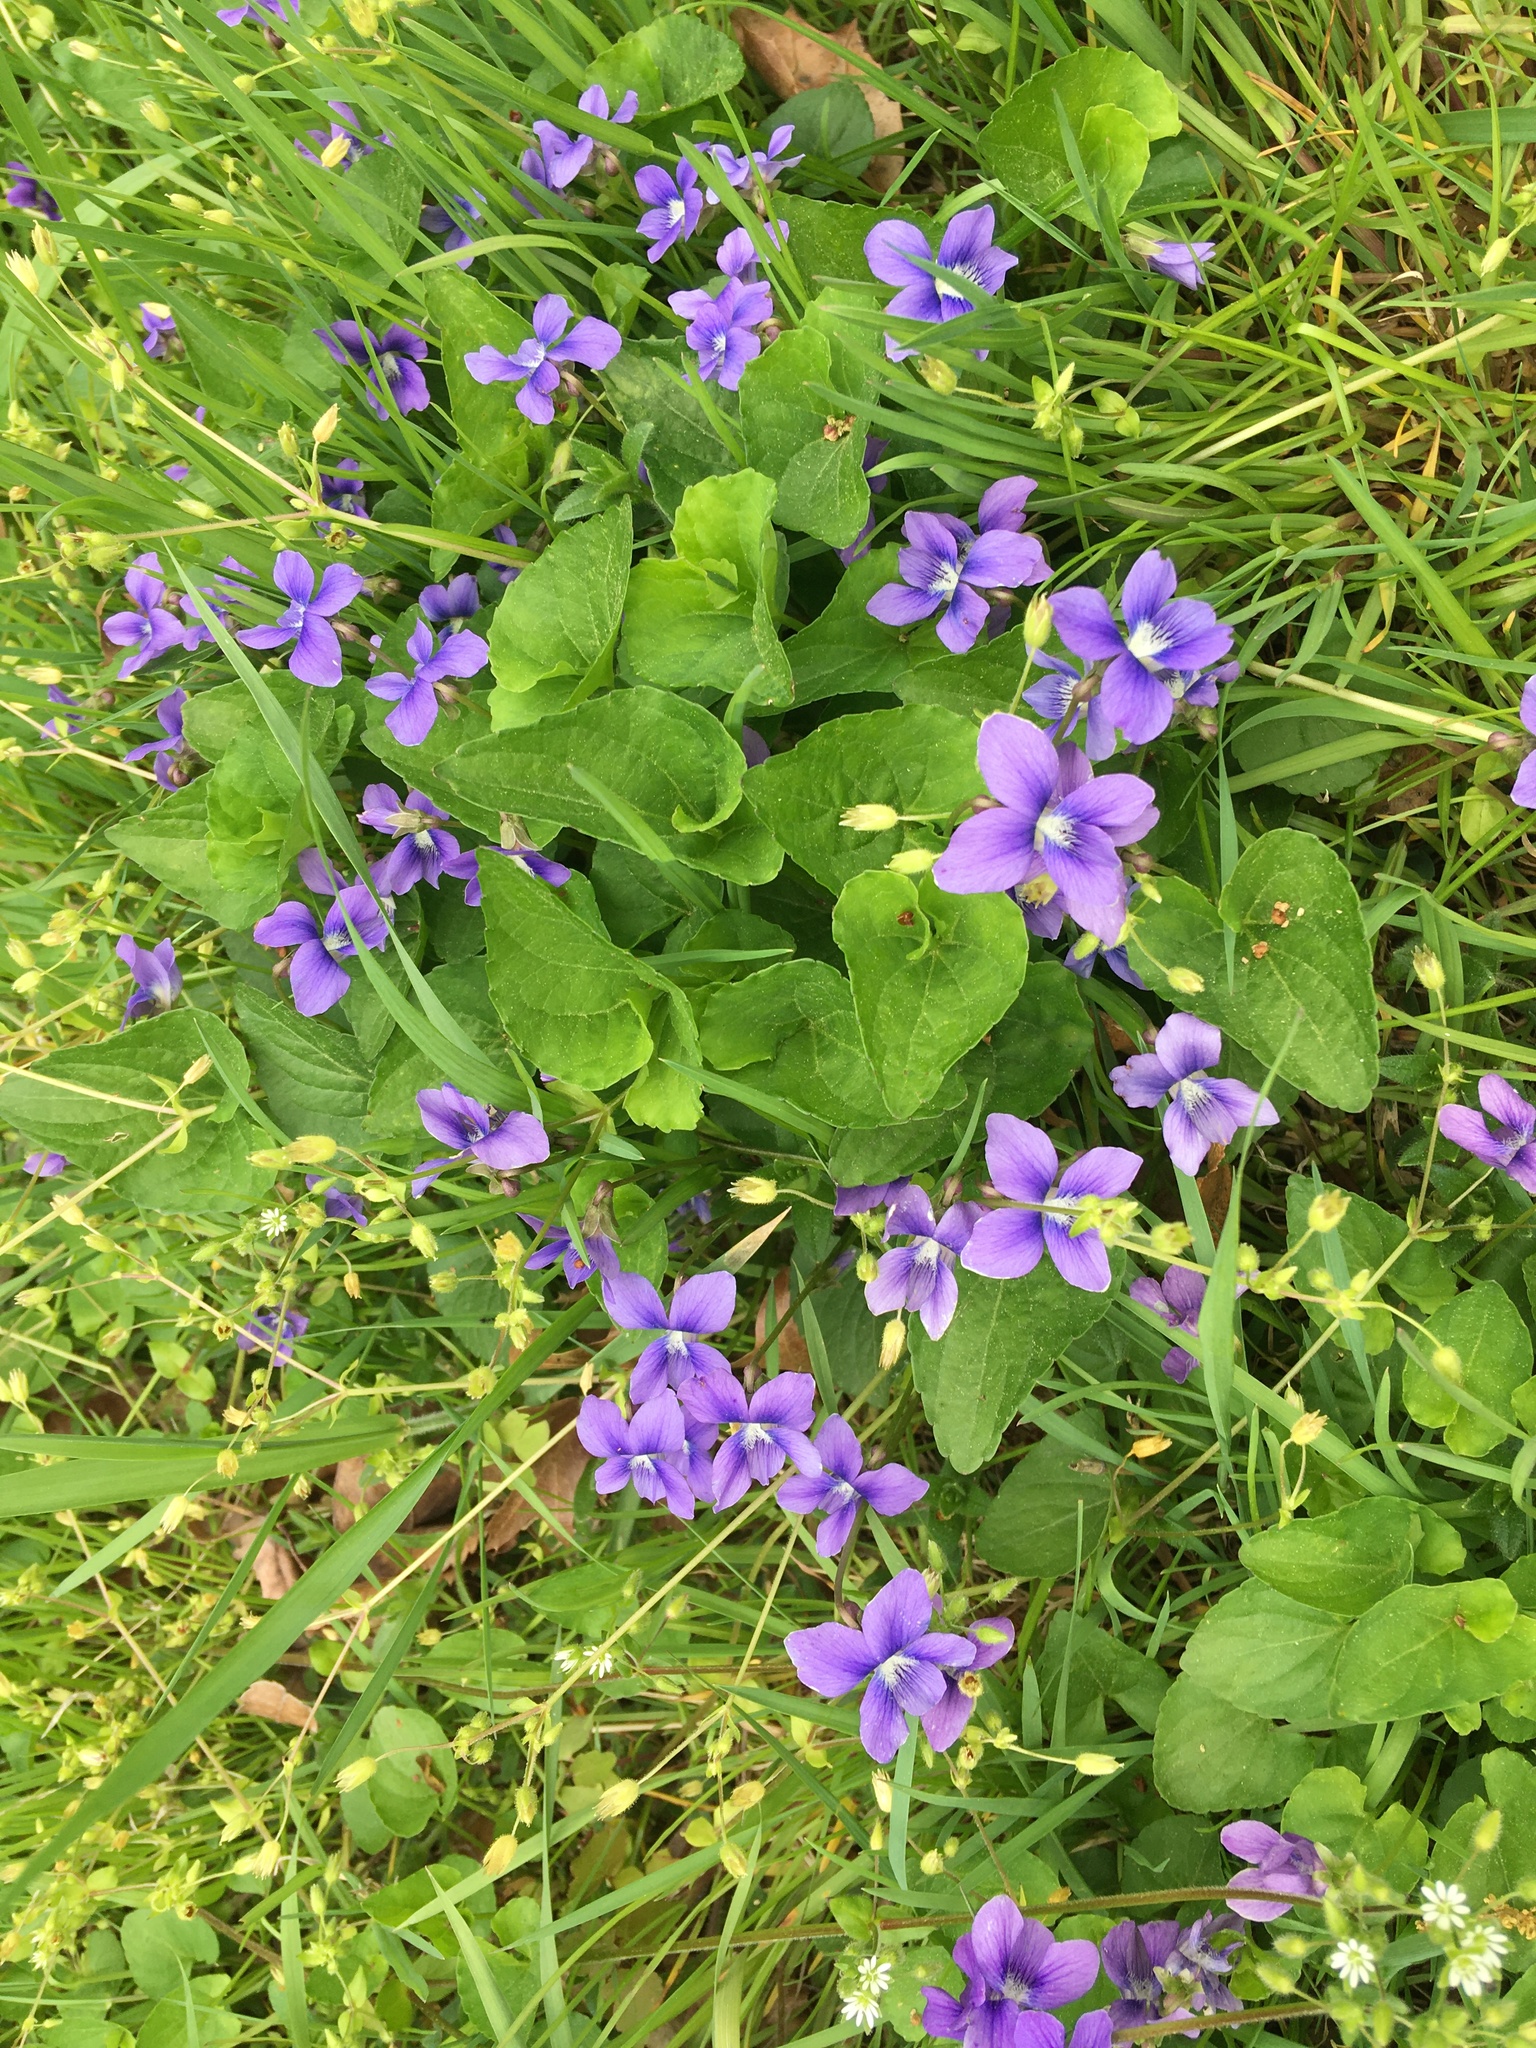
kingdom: Plantae
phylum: Tracheophyta
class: Magnoliopsida
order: Malpighiales
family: Violaceae
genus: Viola
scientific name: Viola sororia
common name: Dooryard violet
